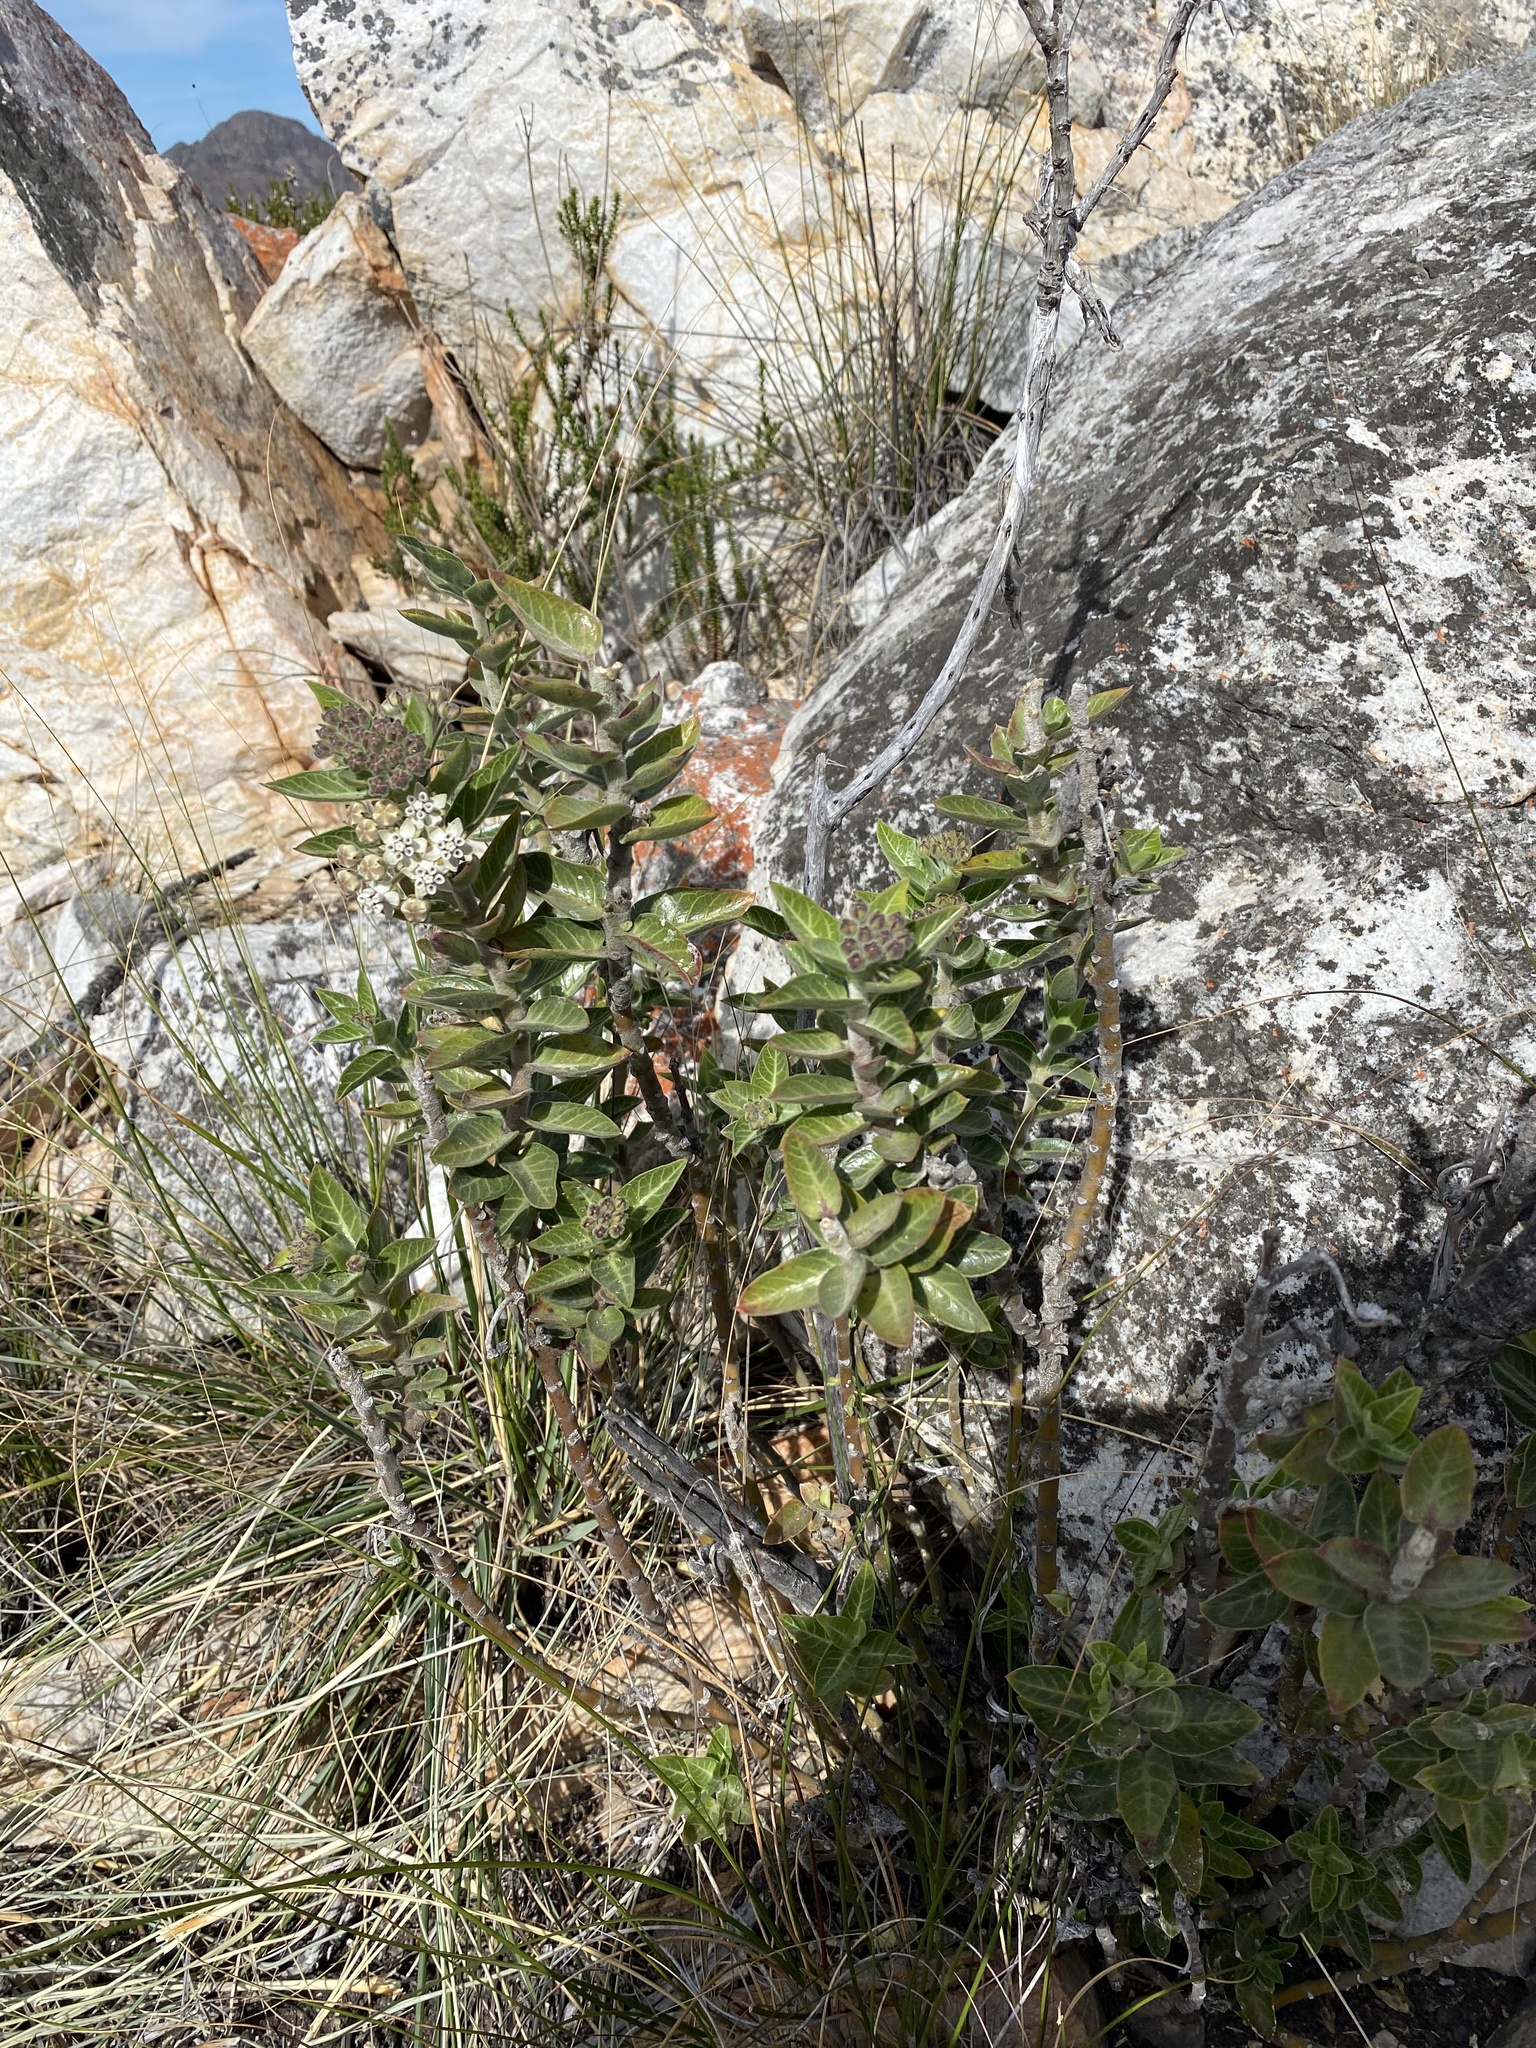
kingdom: Plantae
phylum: Tracheophyta
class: Magnoliopsida
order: Gentianales
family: Apocynaceae
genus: Gomphocarpus
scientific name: Gomphocarpus cancellatus
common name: Wild cotton
